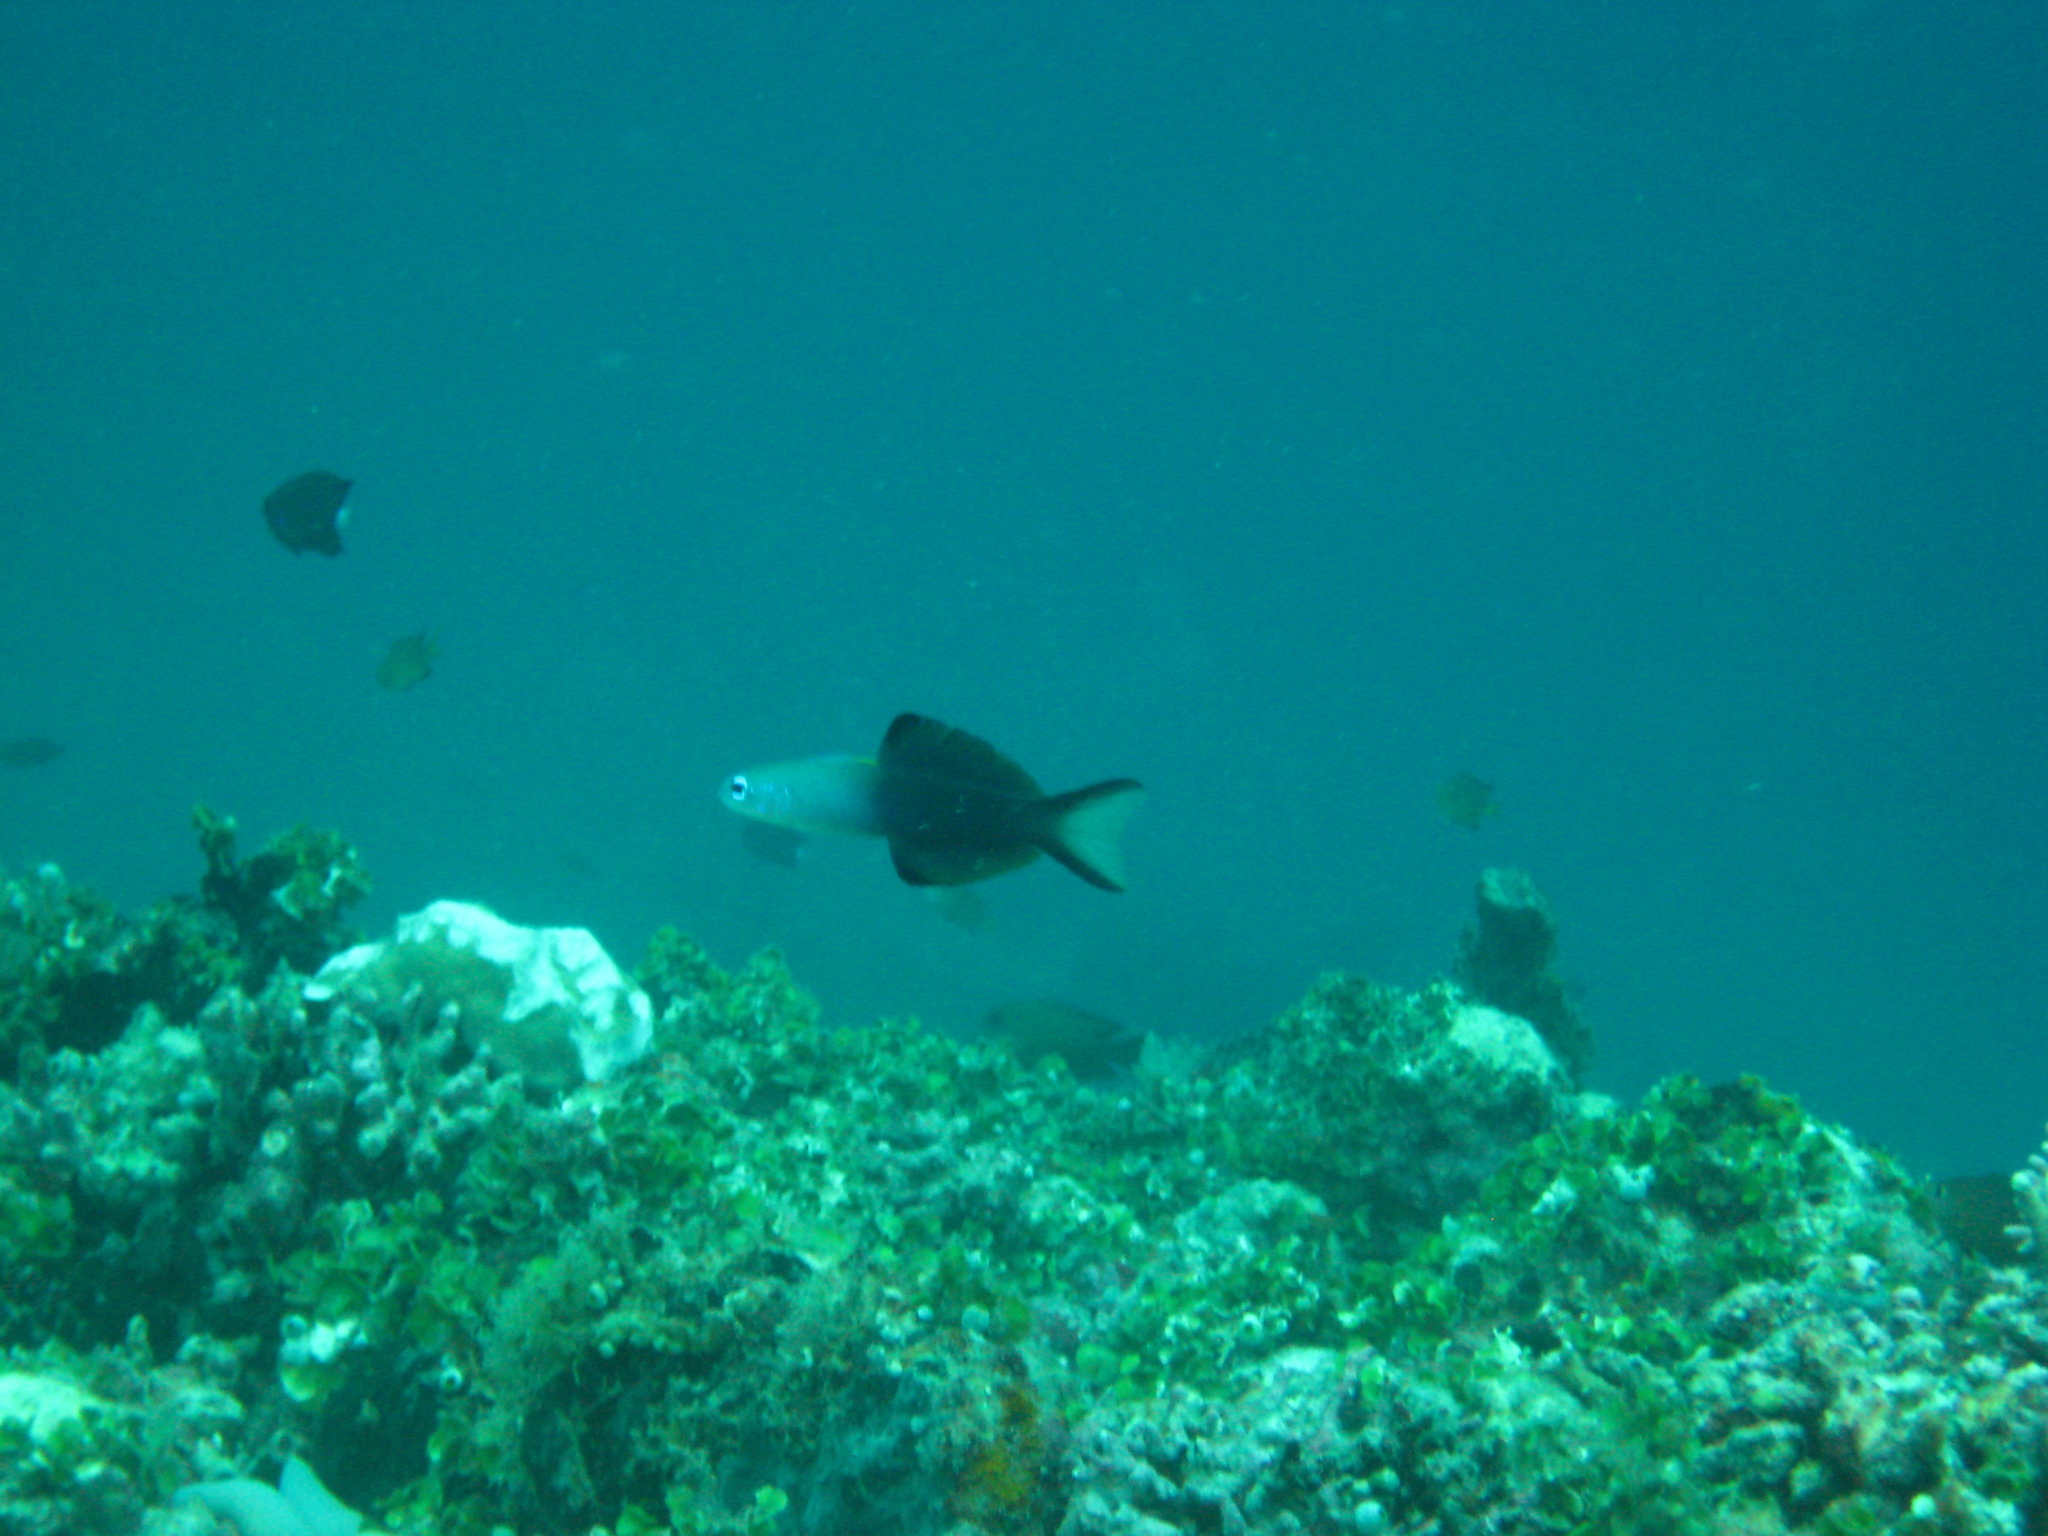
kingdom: Animalia
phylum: Chordata
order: Perciformes
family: Microdesmidae
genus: Ptereleotris
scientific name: Ptereleotris evides
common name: Blackfin dartfish
